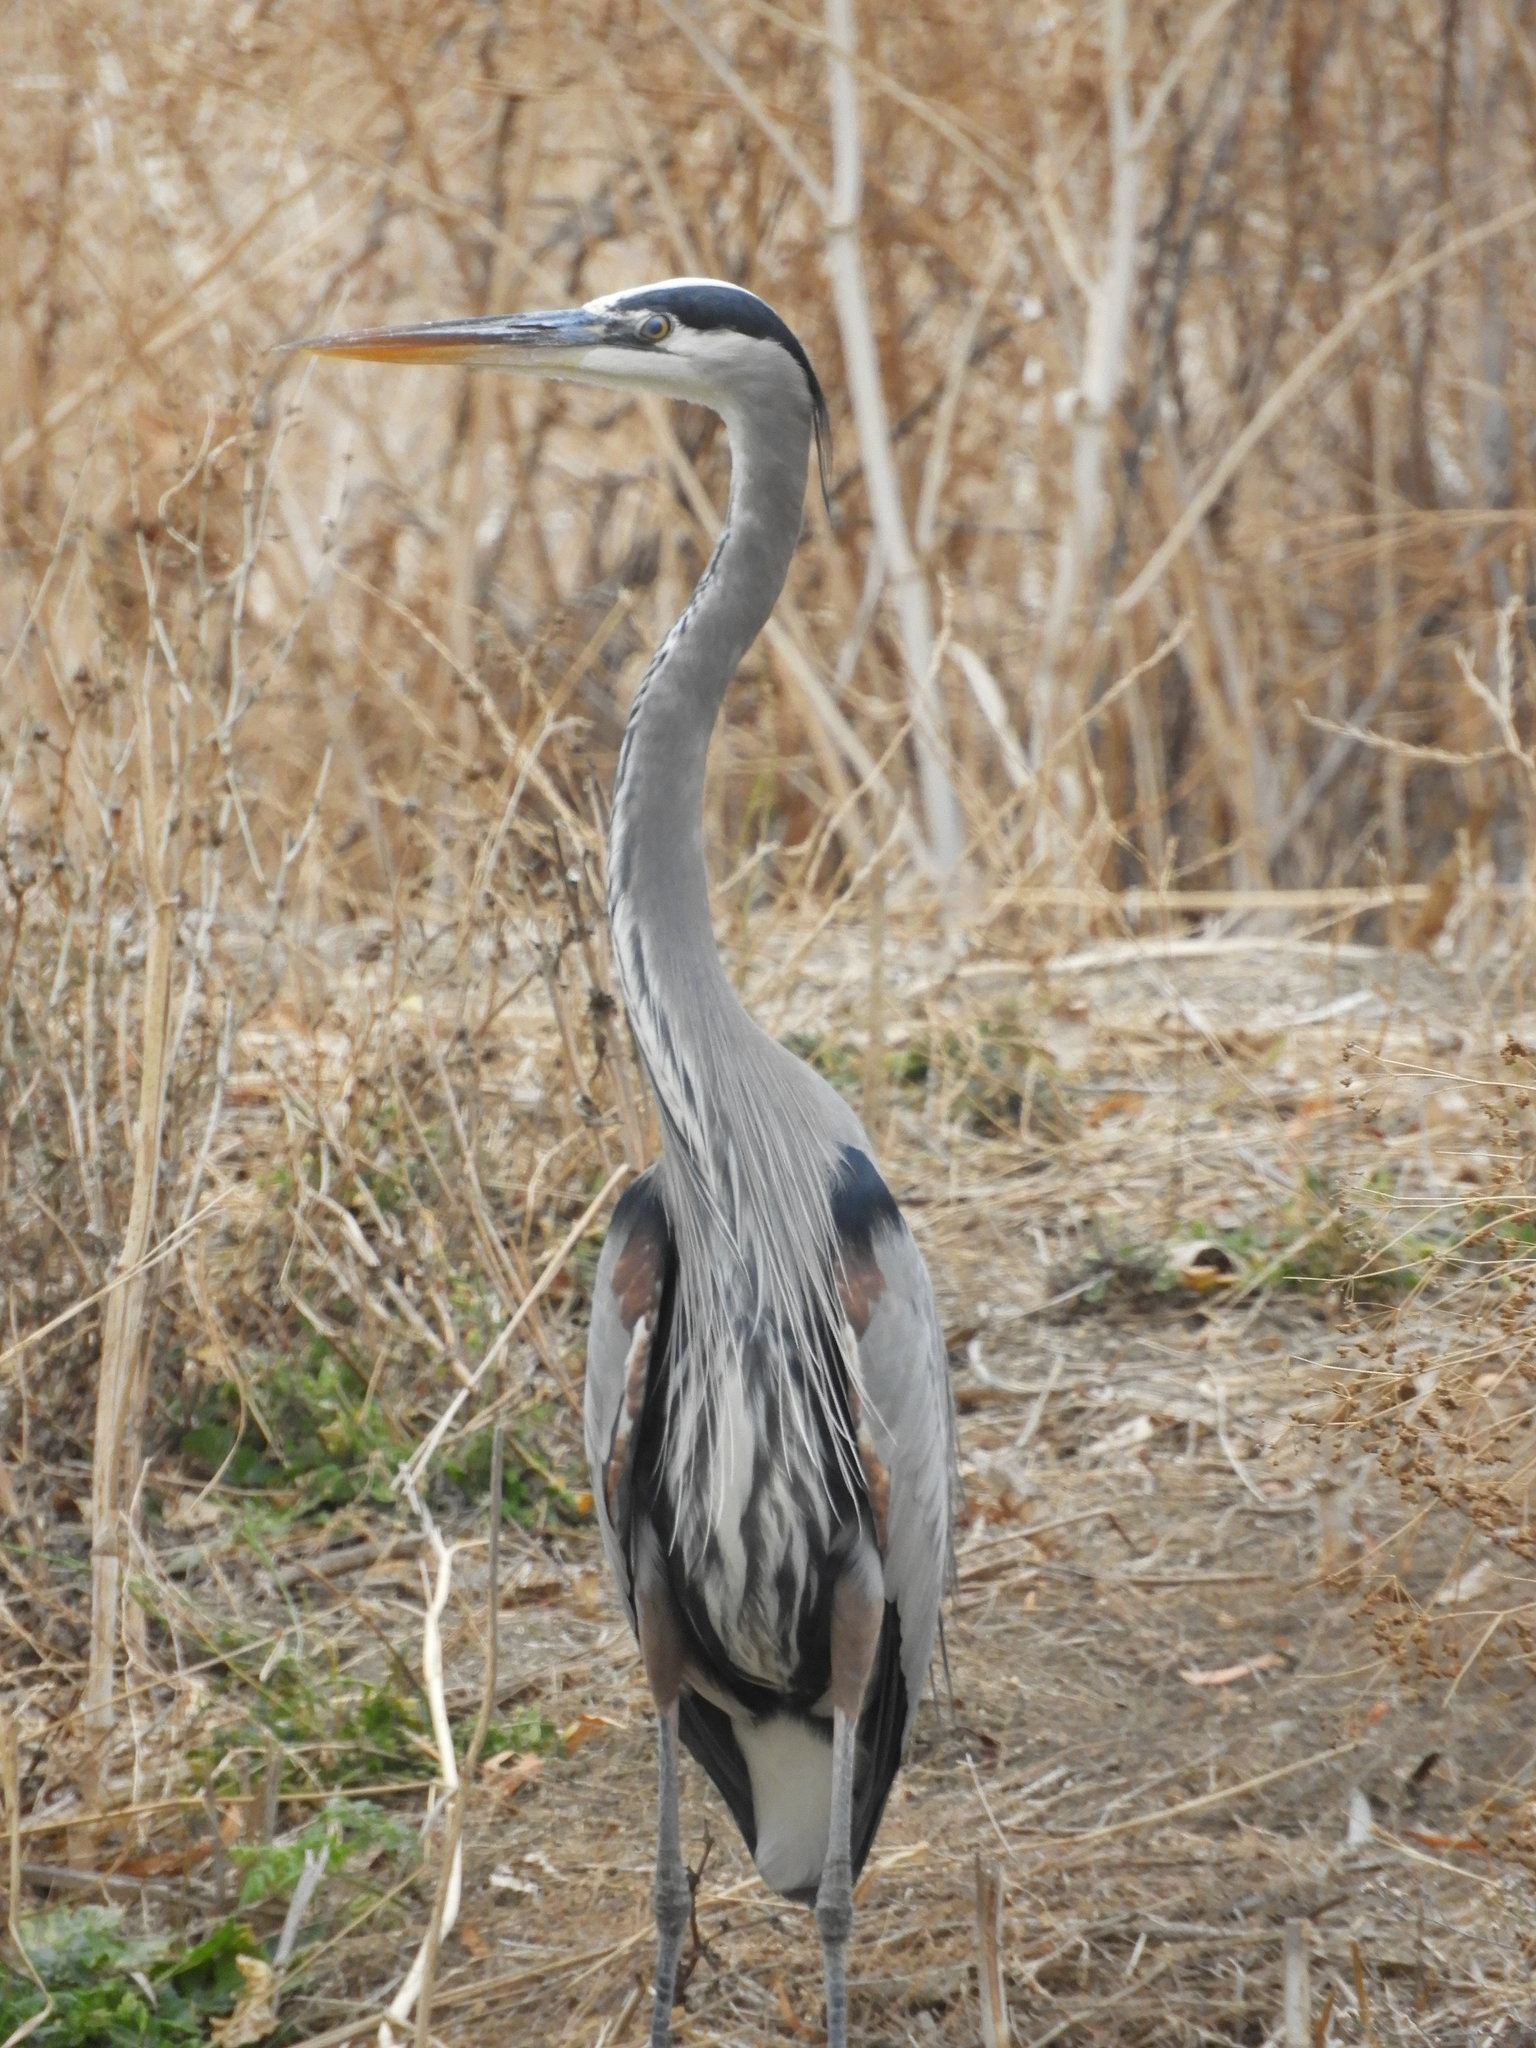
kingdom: Animalia
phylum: Chordata
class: Aves
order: Pelecaniformes
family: Ardeidae
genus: Ardea
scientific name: Ardea herodias
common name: Great blue heron
